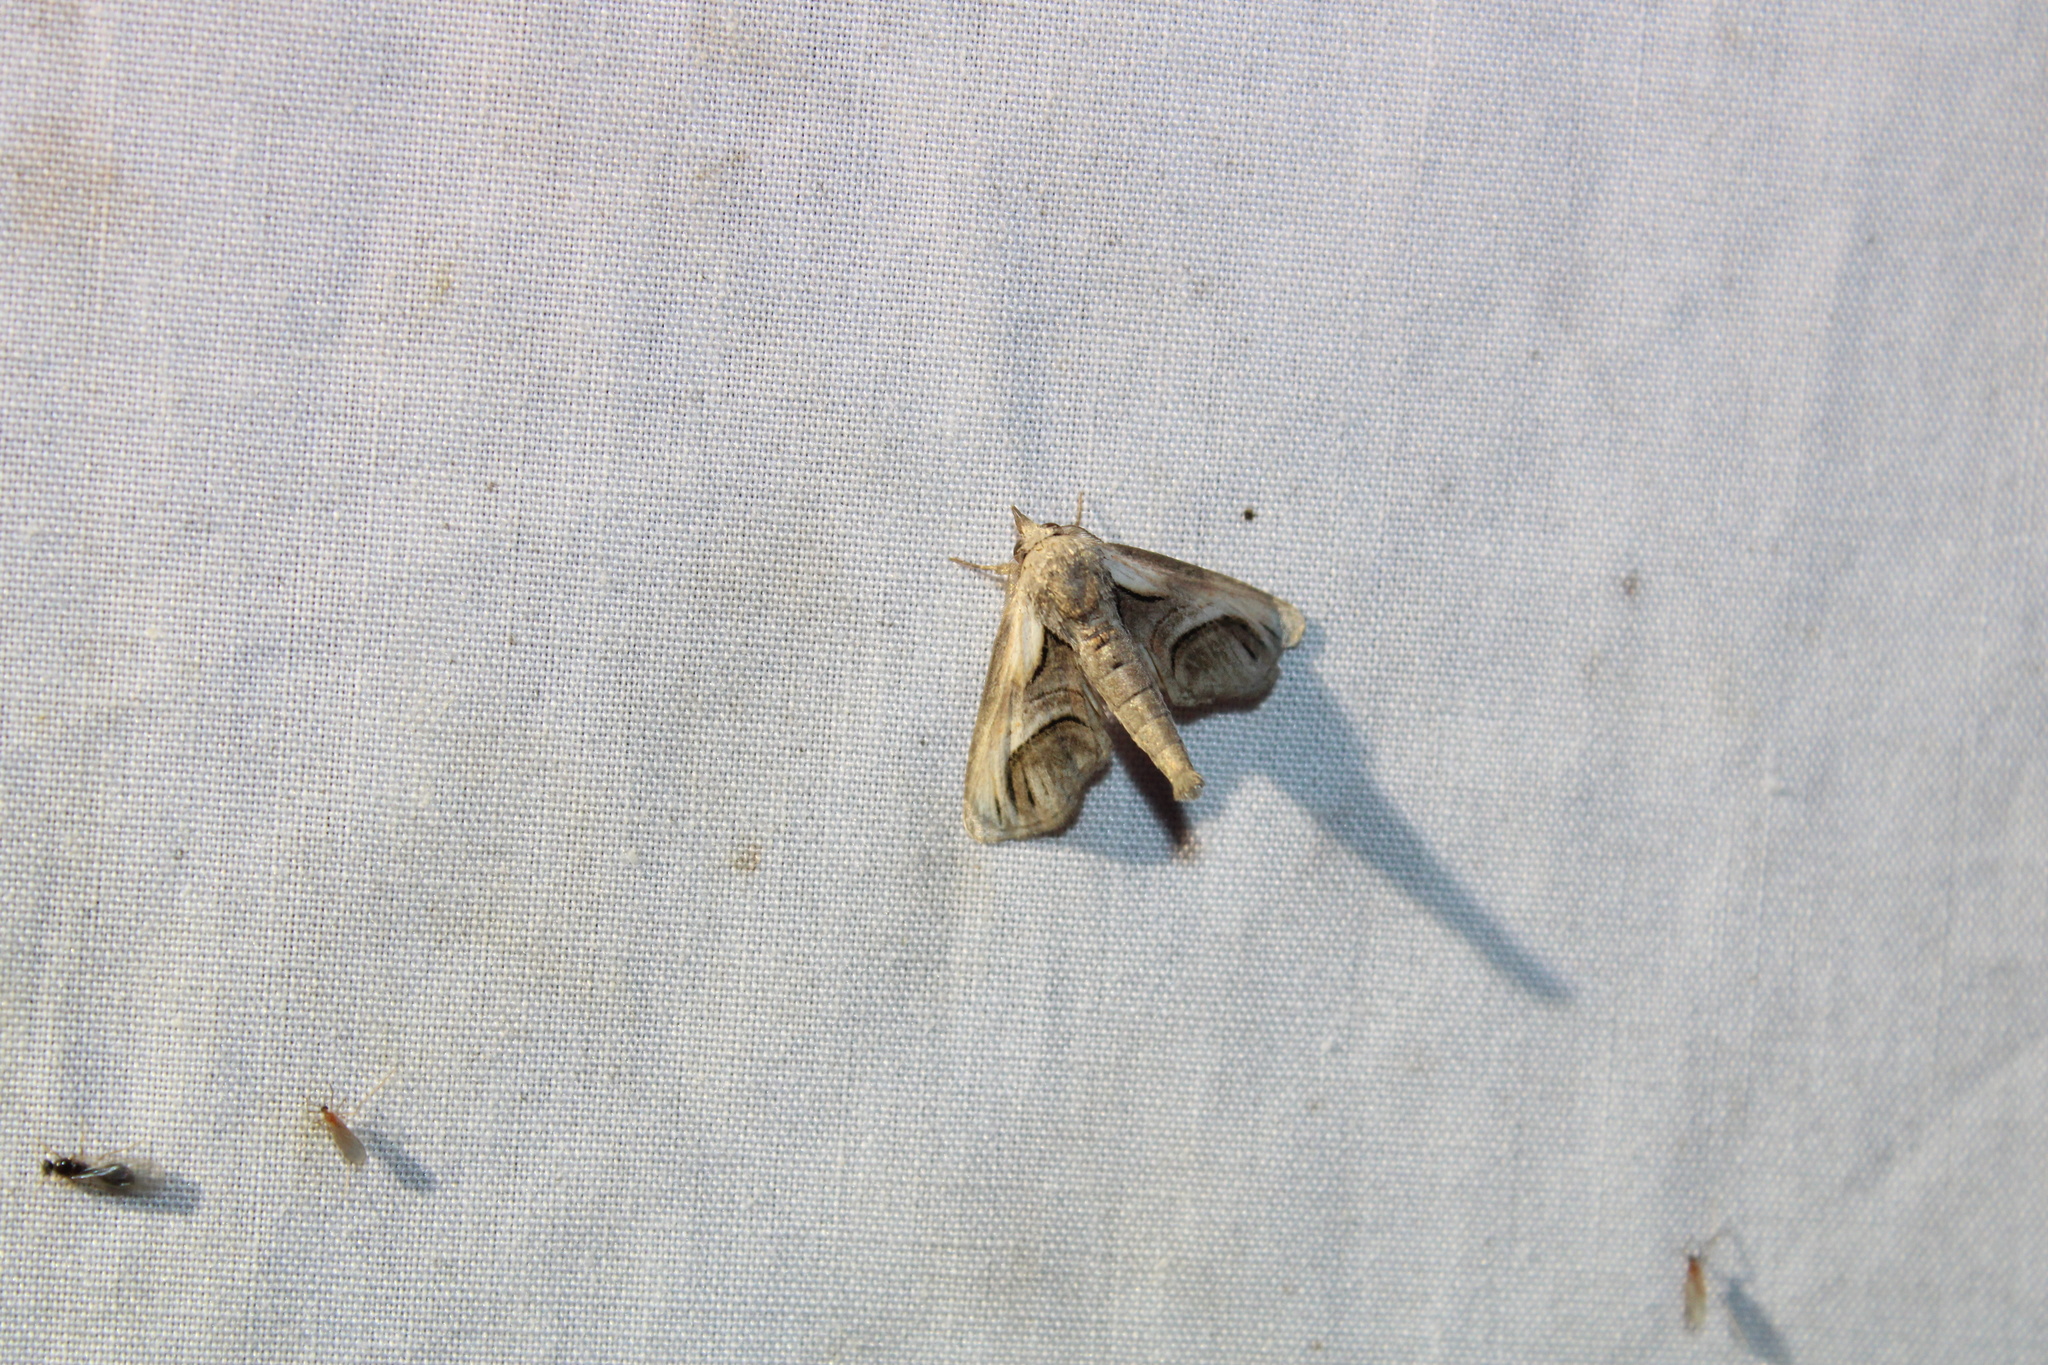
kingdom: Animalia
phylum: Arthropoda
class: Insecta
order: Lepidoptera
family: Euteliidae
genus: Paectes
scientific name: Paectes oculatrix
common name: Eyed paectes moth
